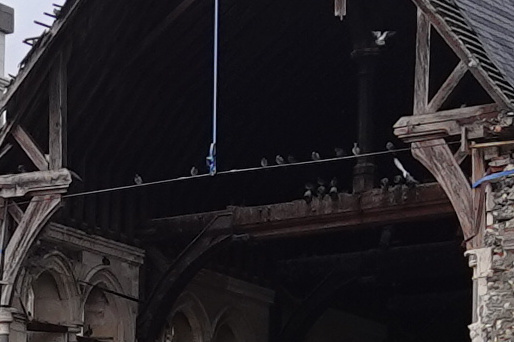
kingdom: Animalia
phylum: Chordata
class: Aves
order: Columbiformes
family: Columbidae
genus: Columba
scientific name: Columba livia
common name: Rock pigeon
